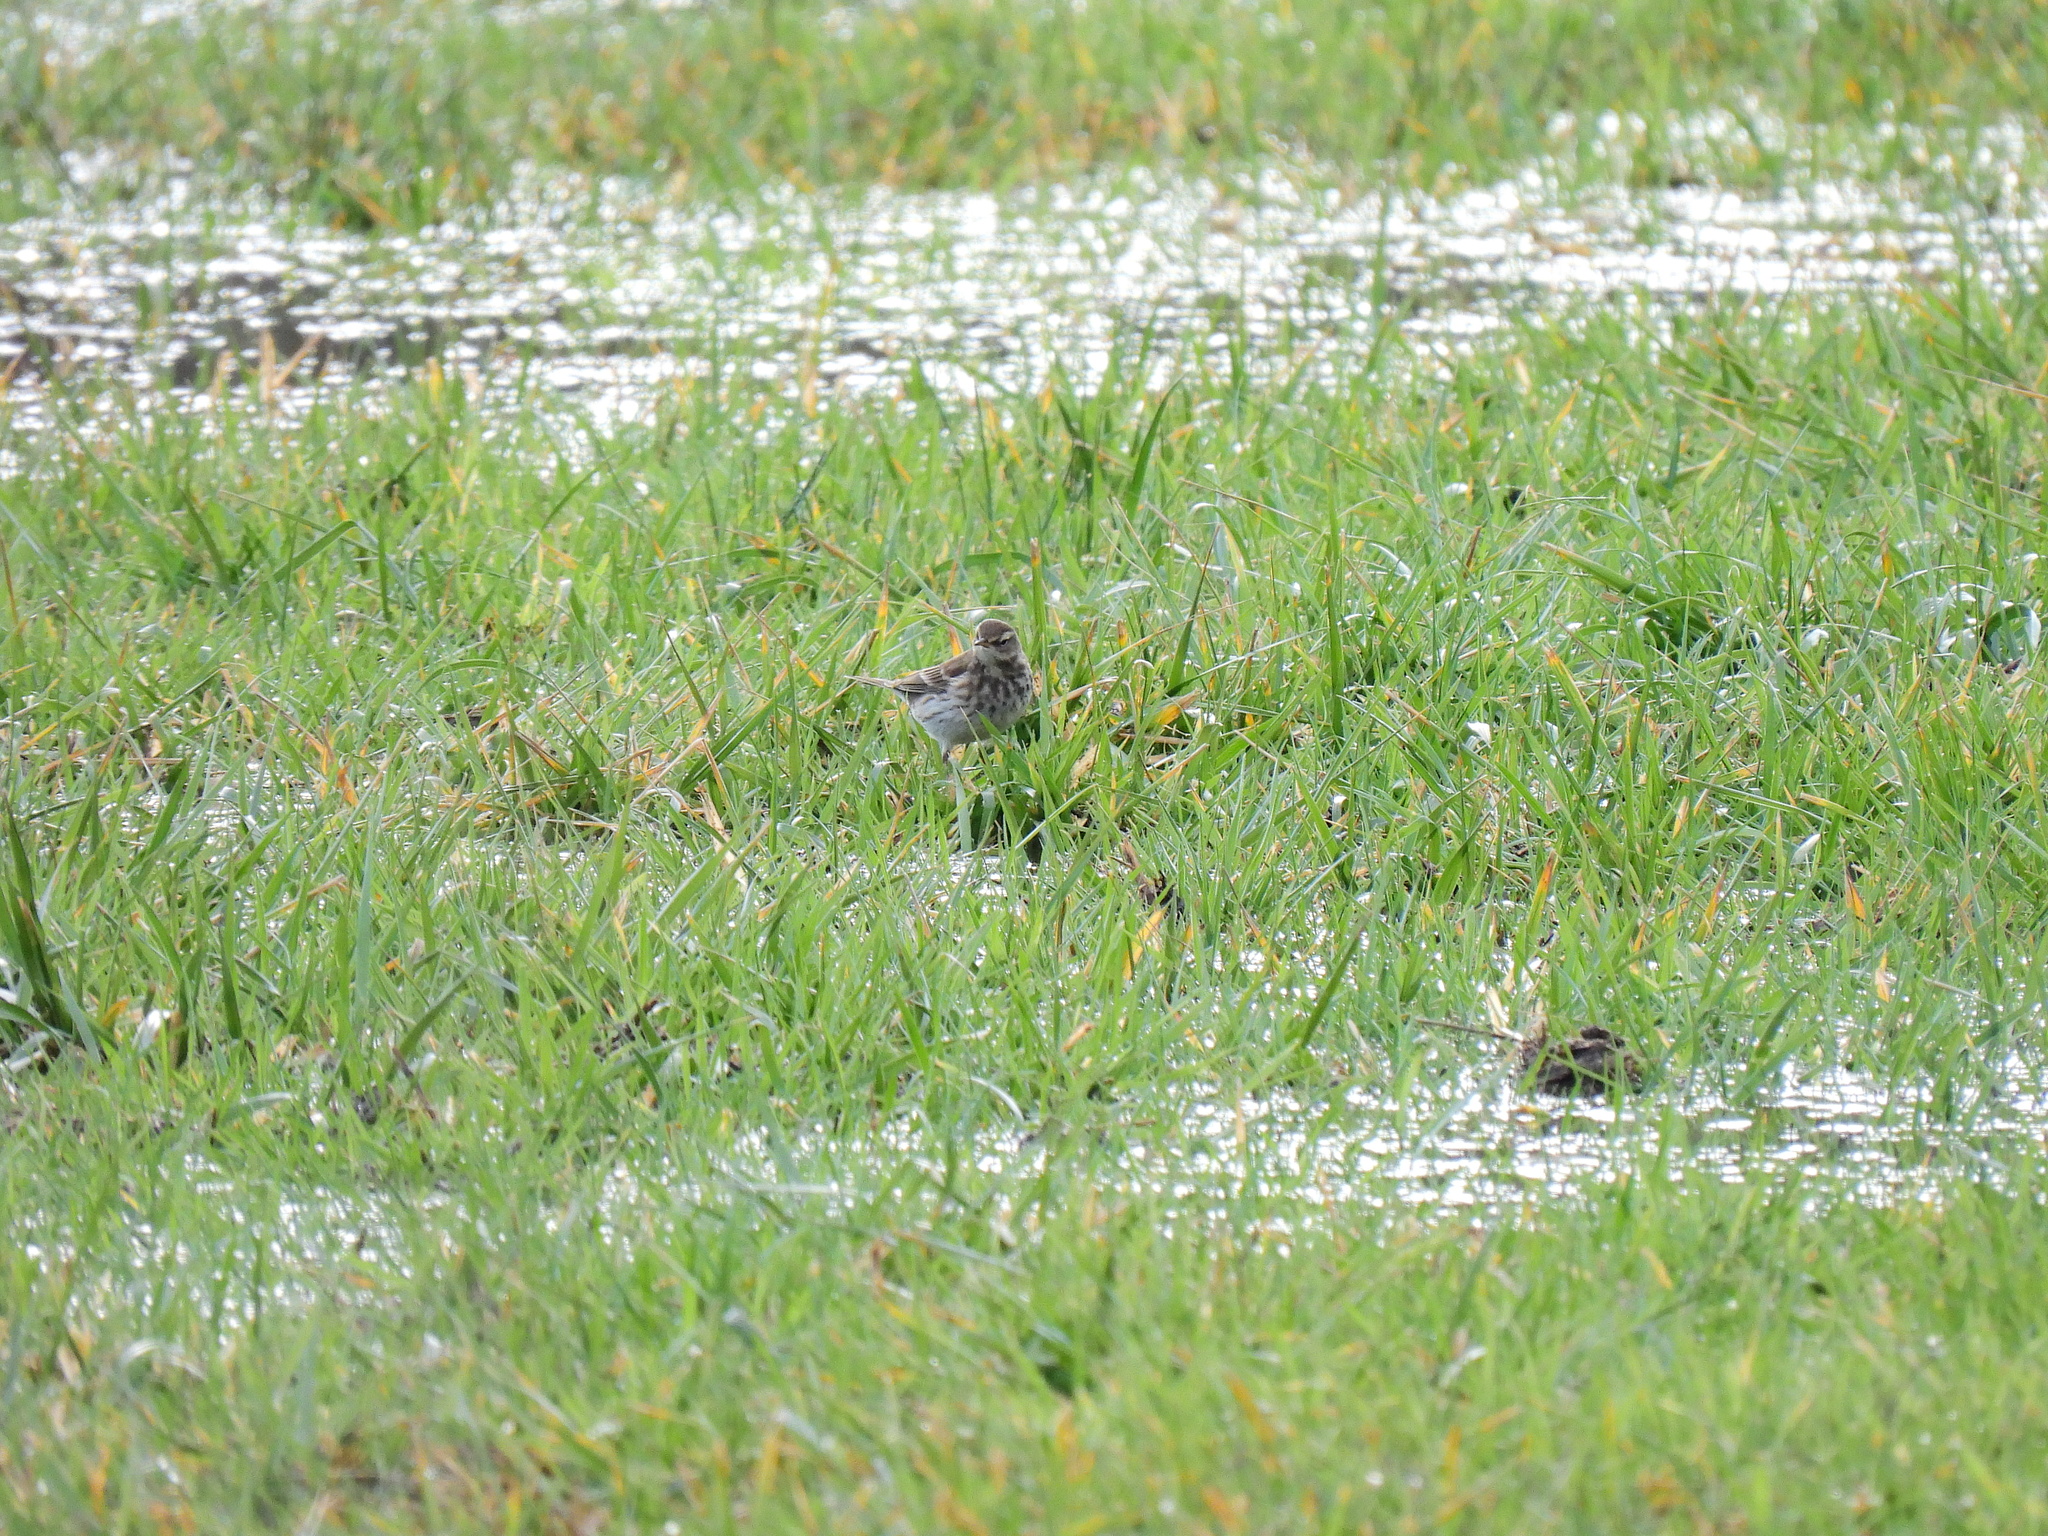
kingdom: Animalia
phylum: Chordata
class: Aves
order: Passeriformes
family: Motacillidae
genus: Anthus
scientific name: Anthus spinoletta
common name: Water pipit
